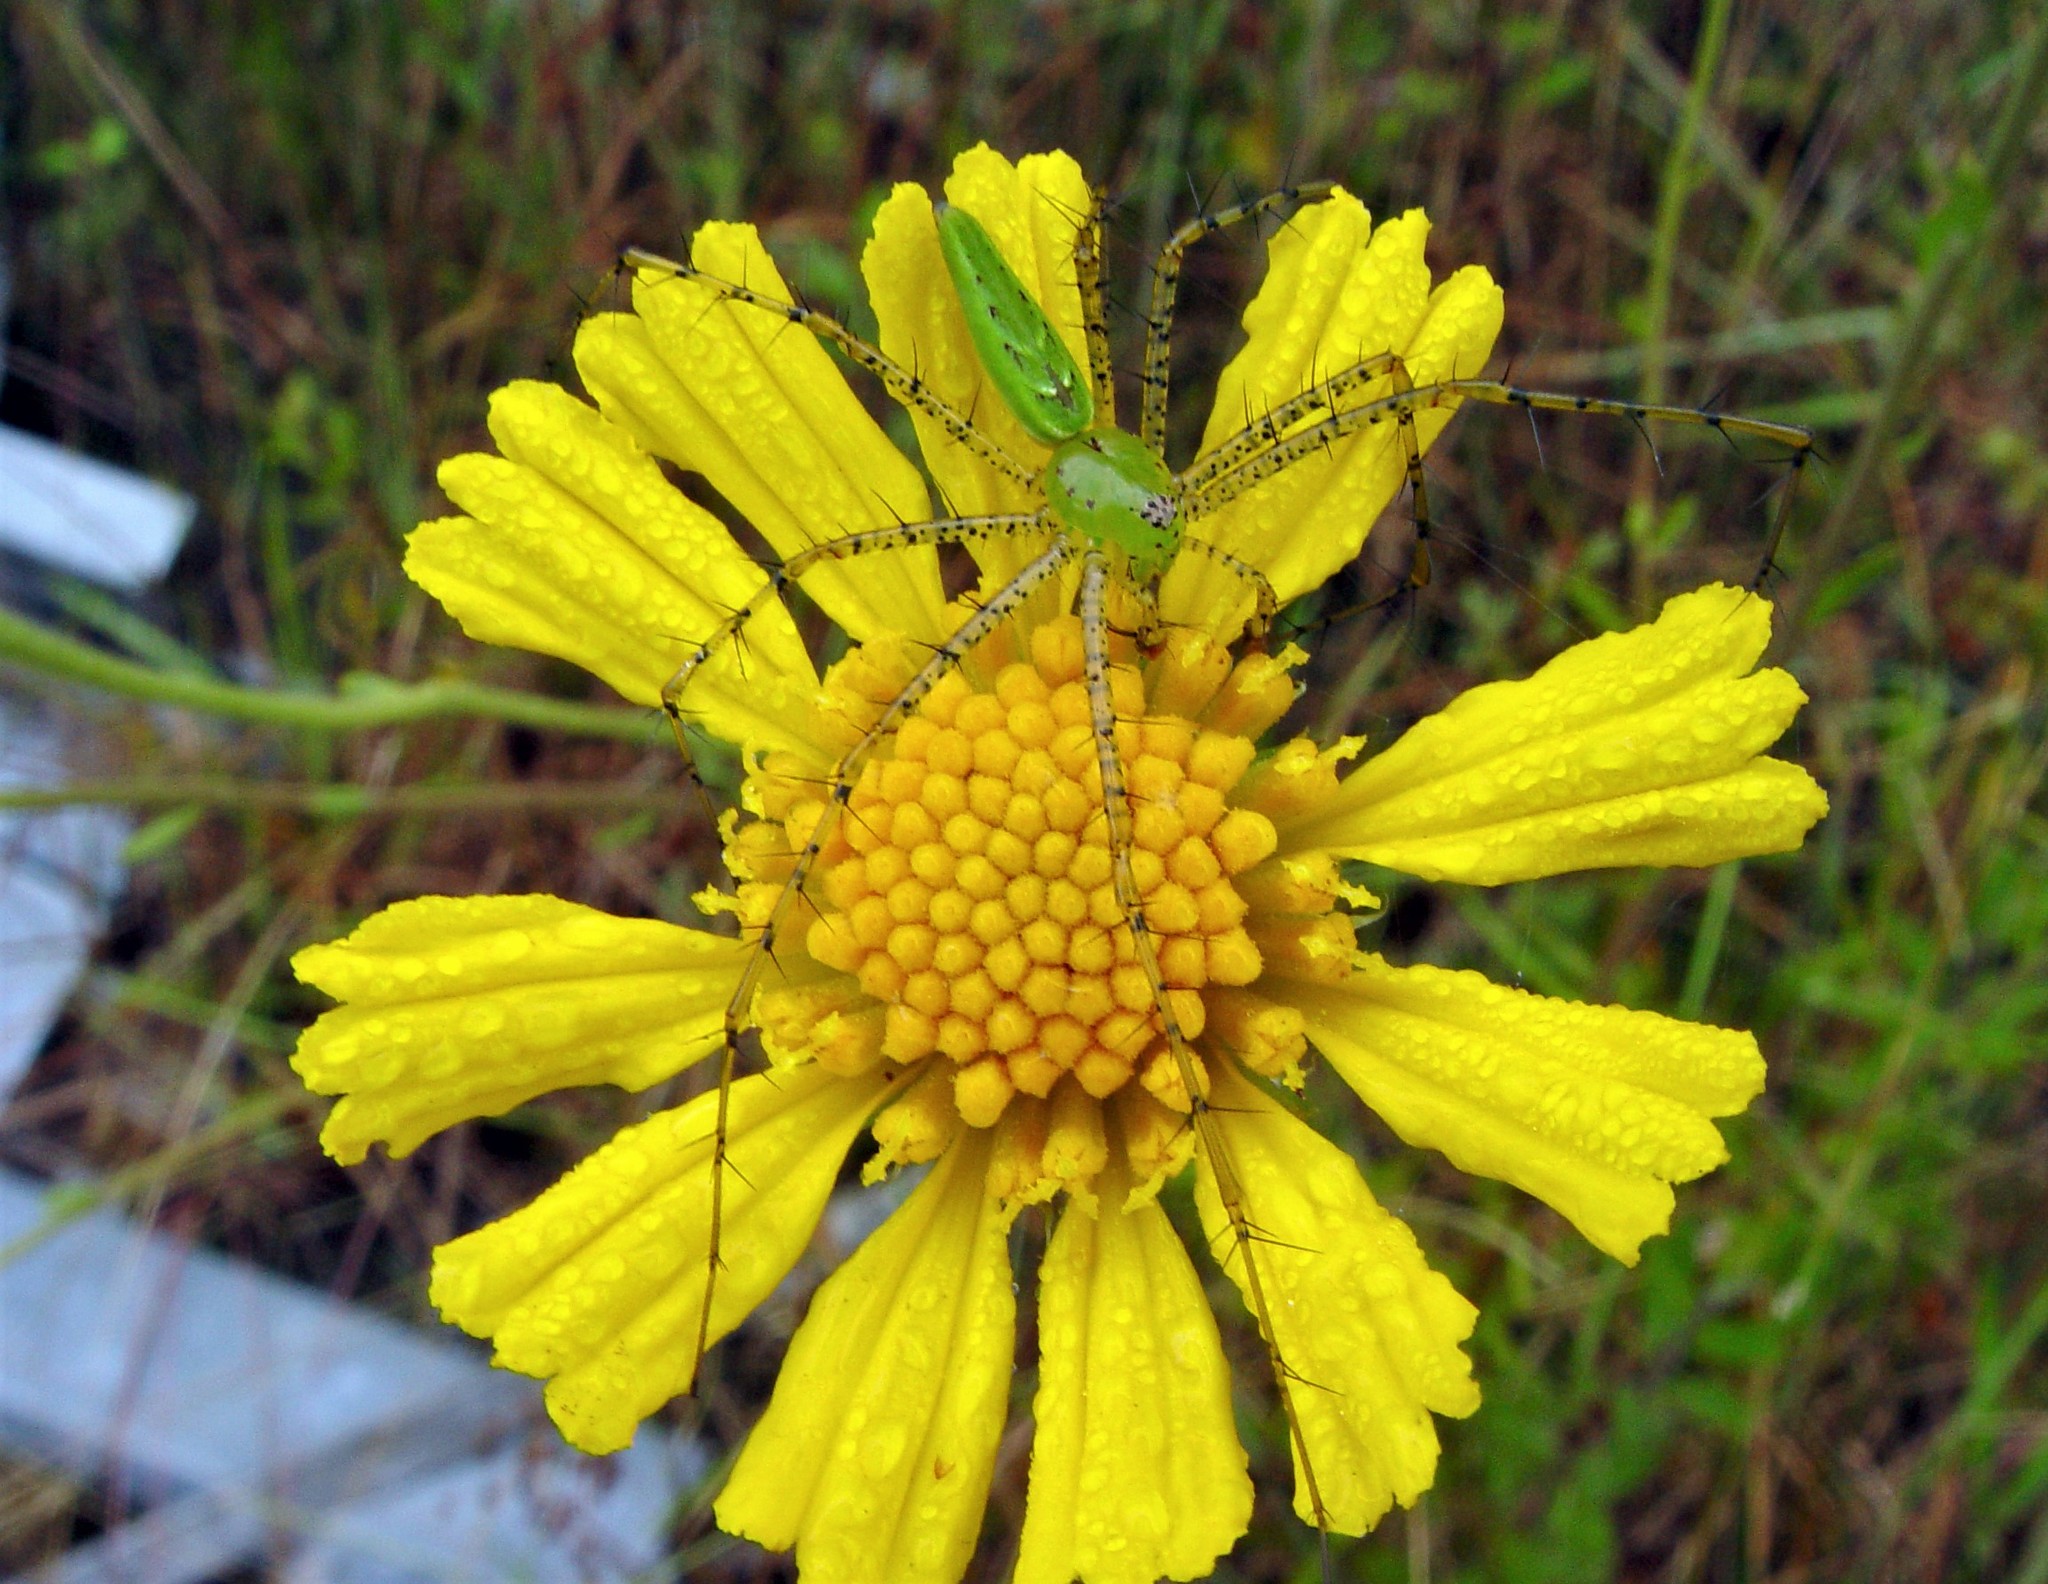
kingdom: Animalia
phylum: Arthropoda
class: Arachnida
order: Araneae
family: Oxyopidae
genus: Peucetia
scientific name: Peucetia viridans
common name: Lynx spiders
